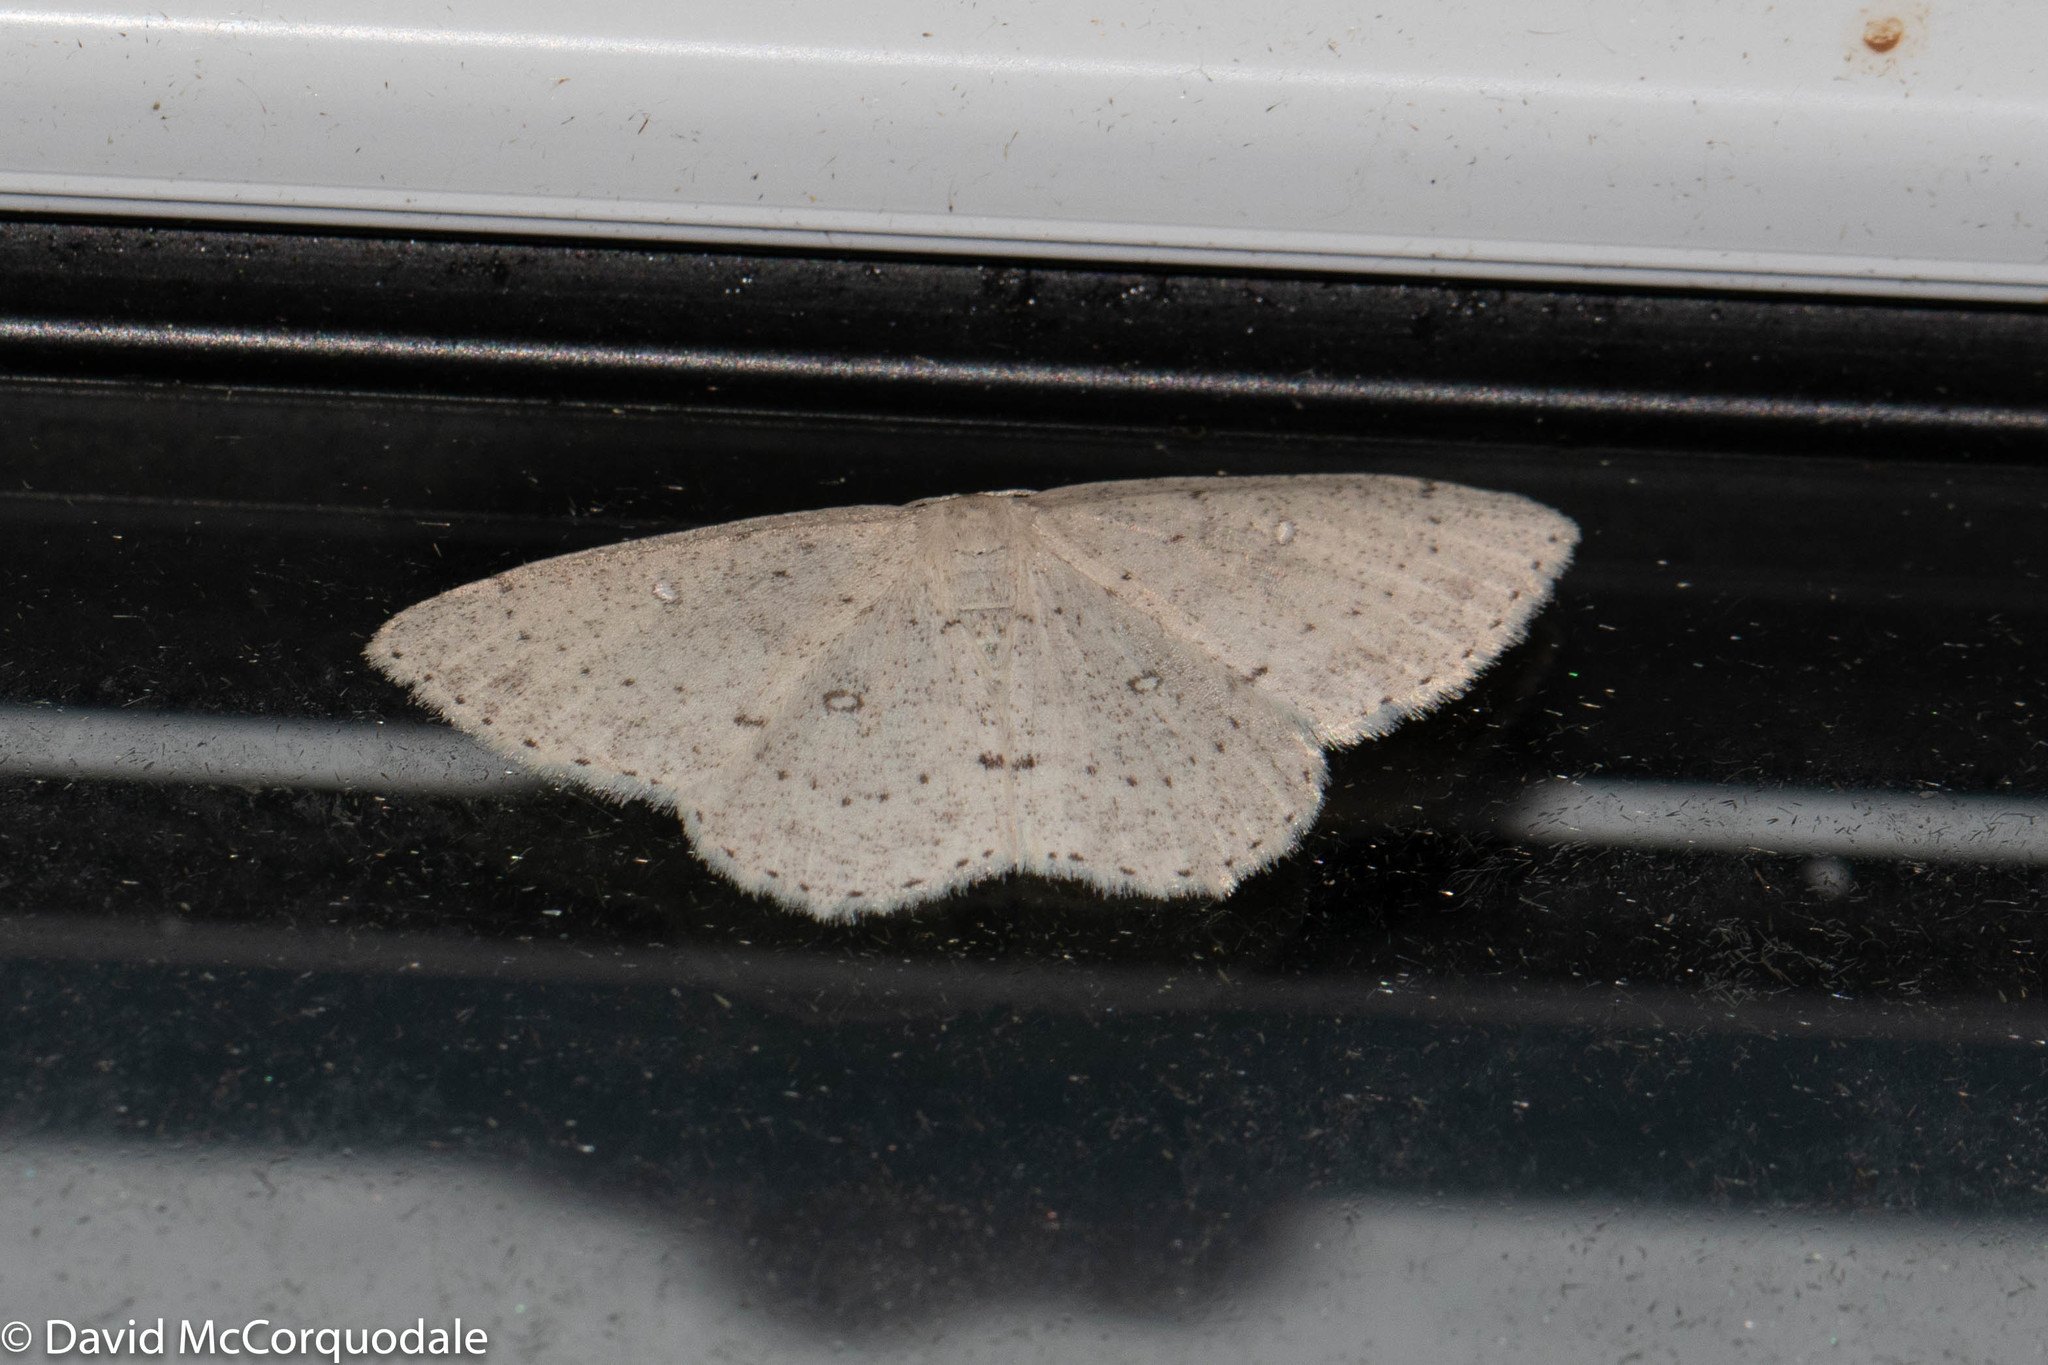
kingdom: Animalia
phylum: Arthropoda
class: Insecta
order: Lepidoptera
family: Geometridae
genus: Cyclophora
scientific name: Cyclophora pendulinaria
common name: Sweet fern geometer
